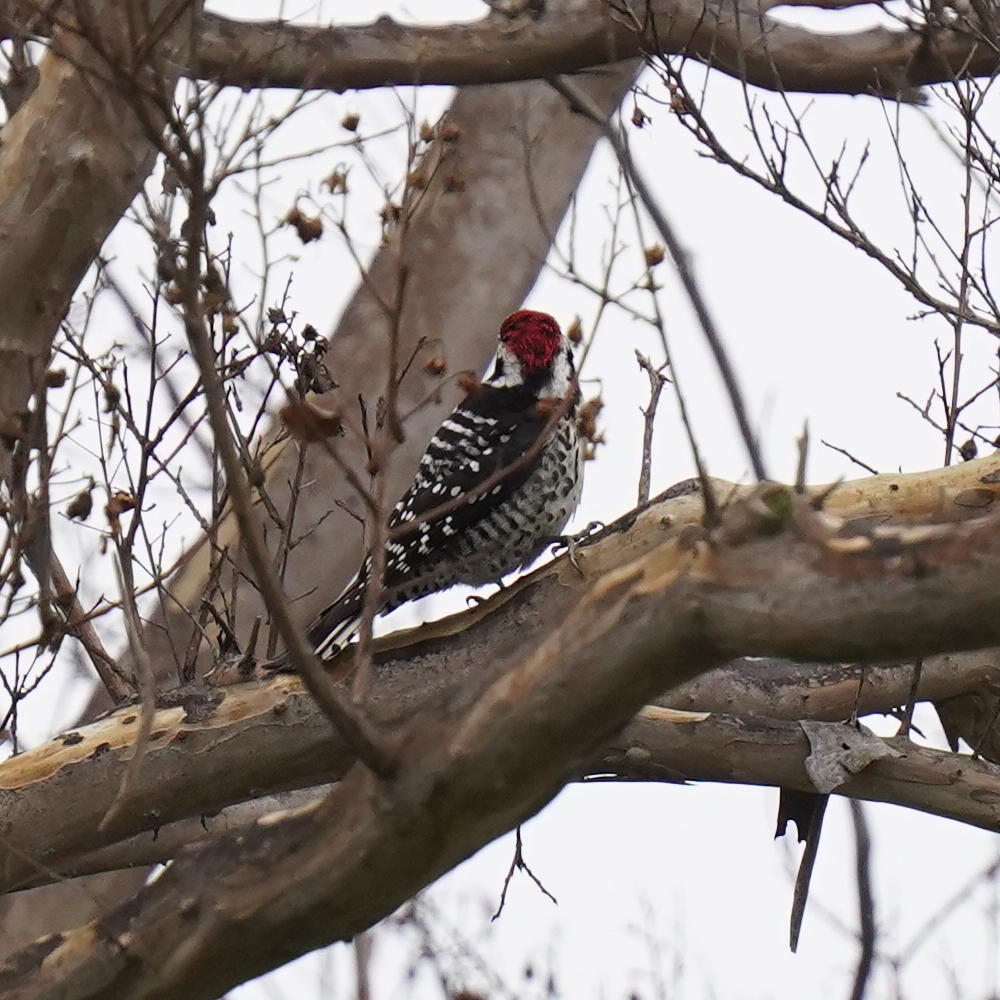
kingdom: Animalia
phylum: Chordata
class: Aves
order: Piciformes
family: Picidae
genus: Dryobates
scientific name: Dryobates nuttallii
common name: Nuttall's woodpecker
